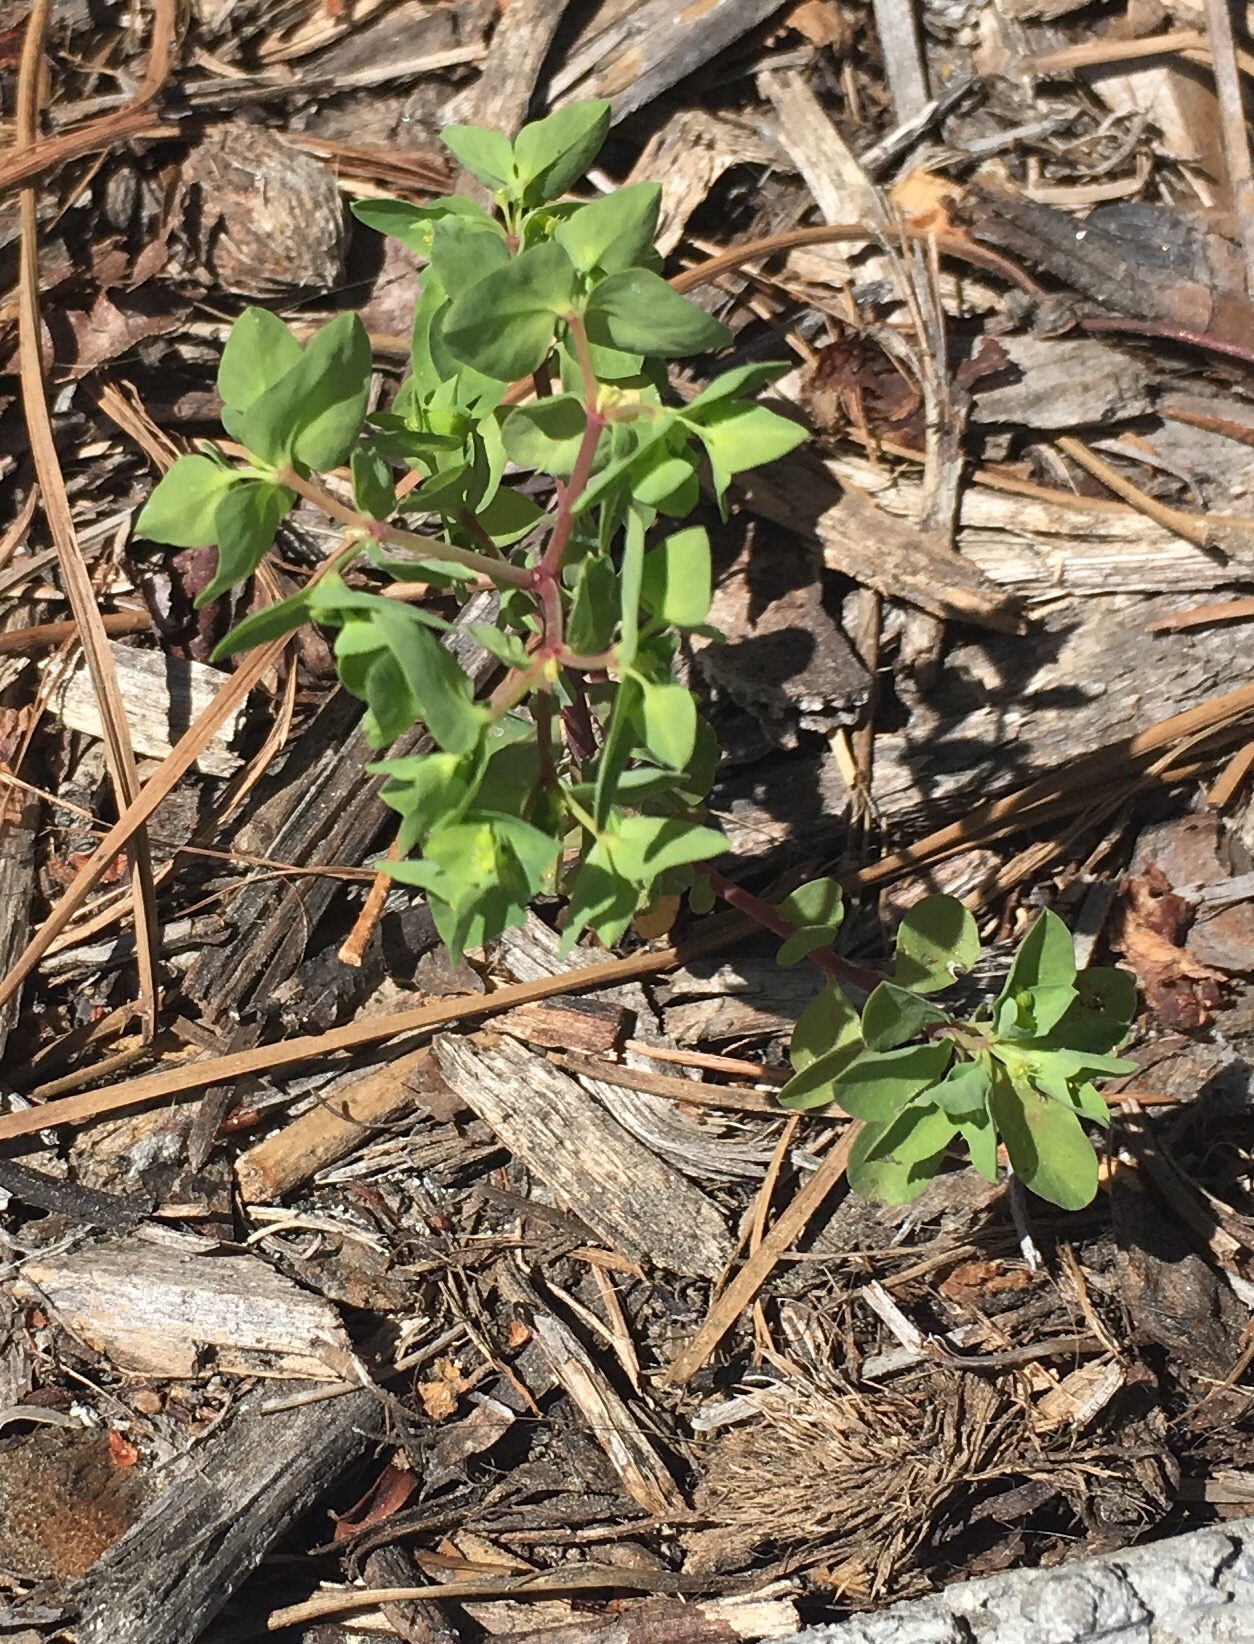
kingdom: Plantae
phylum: Tracheophyta
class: Magnoliopsida
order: Malpighiales
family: Euphorbiaceae
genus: Euphorbia
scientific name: Euphorbia peplus
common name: Petty spurge
